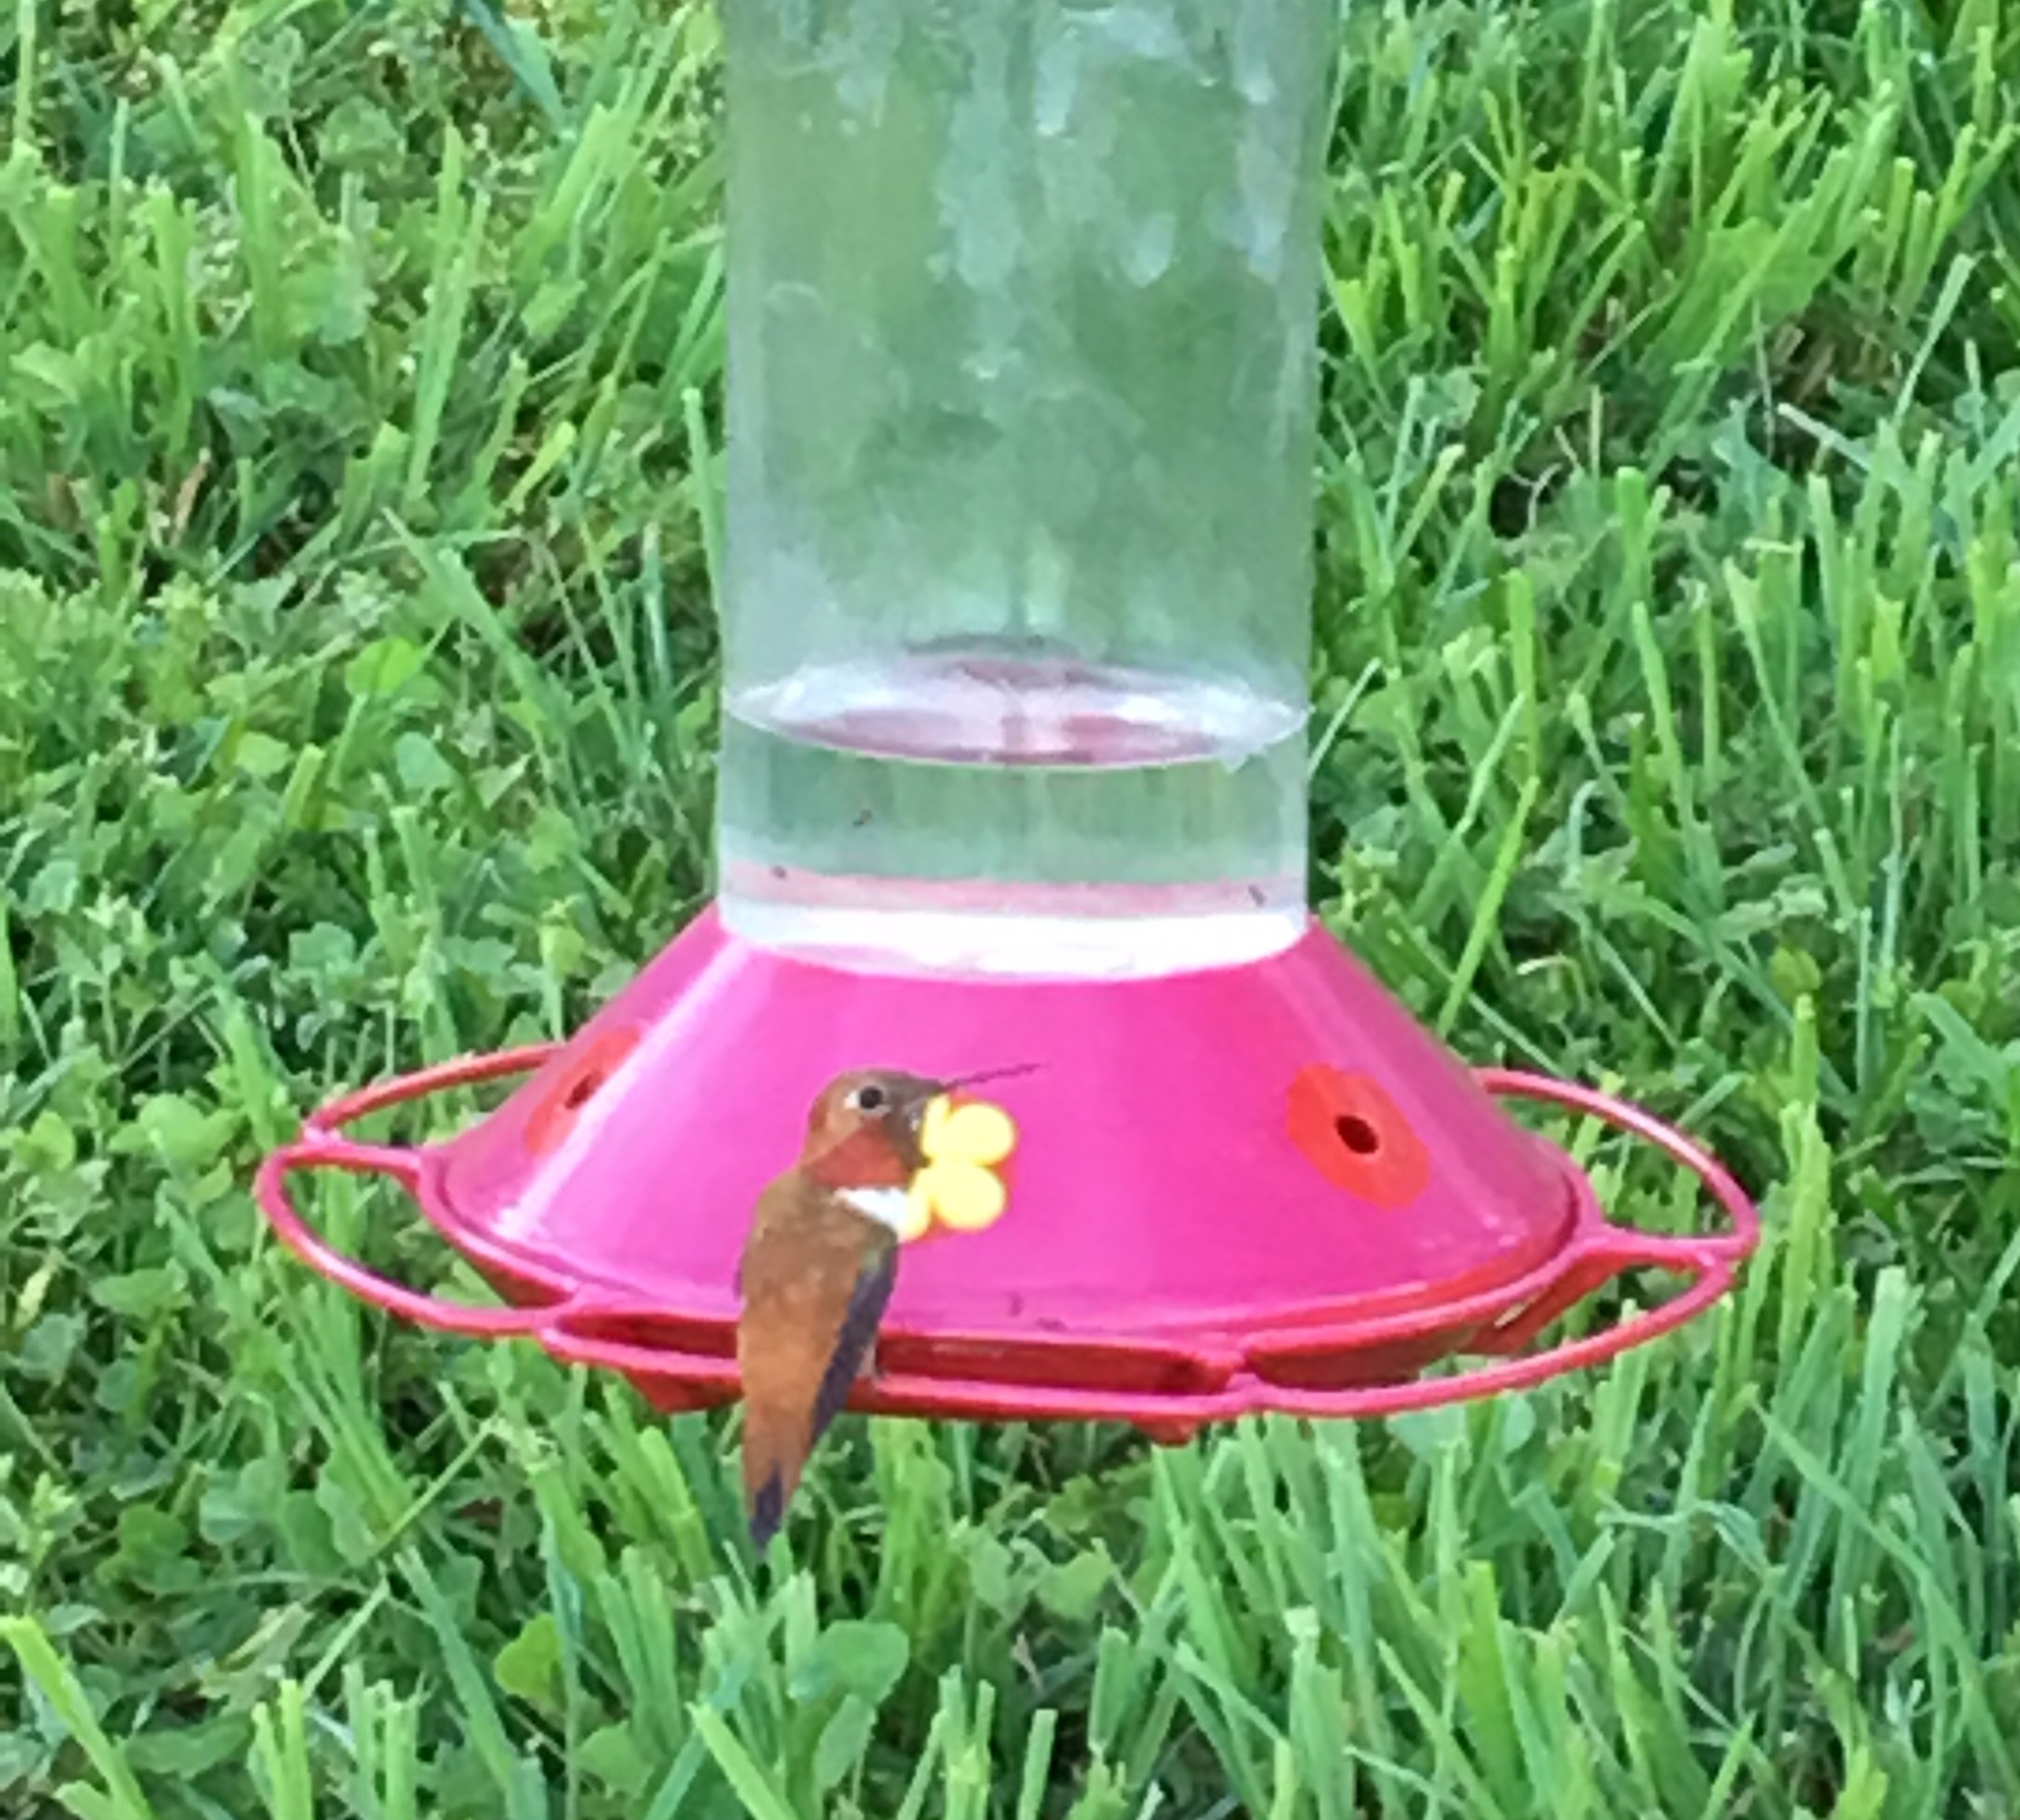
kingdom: Animalia
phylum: Chordata
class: Aves
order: Apodiformes
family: Trochilidae
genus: Selasphorus
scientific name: Selasphorus rufus
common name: Rufous hummingbird
